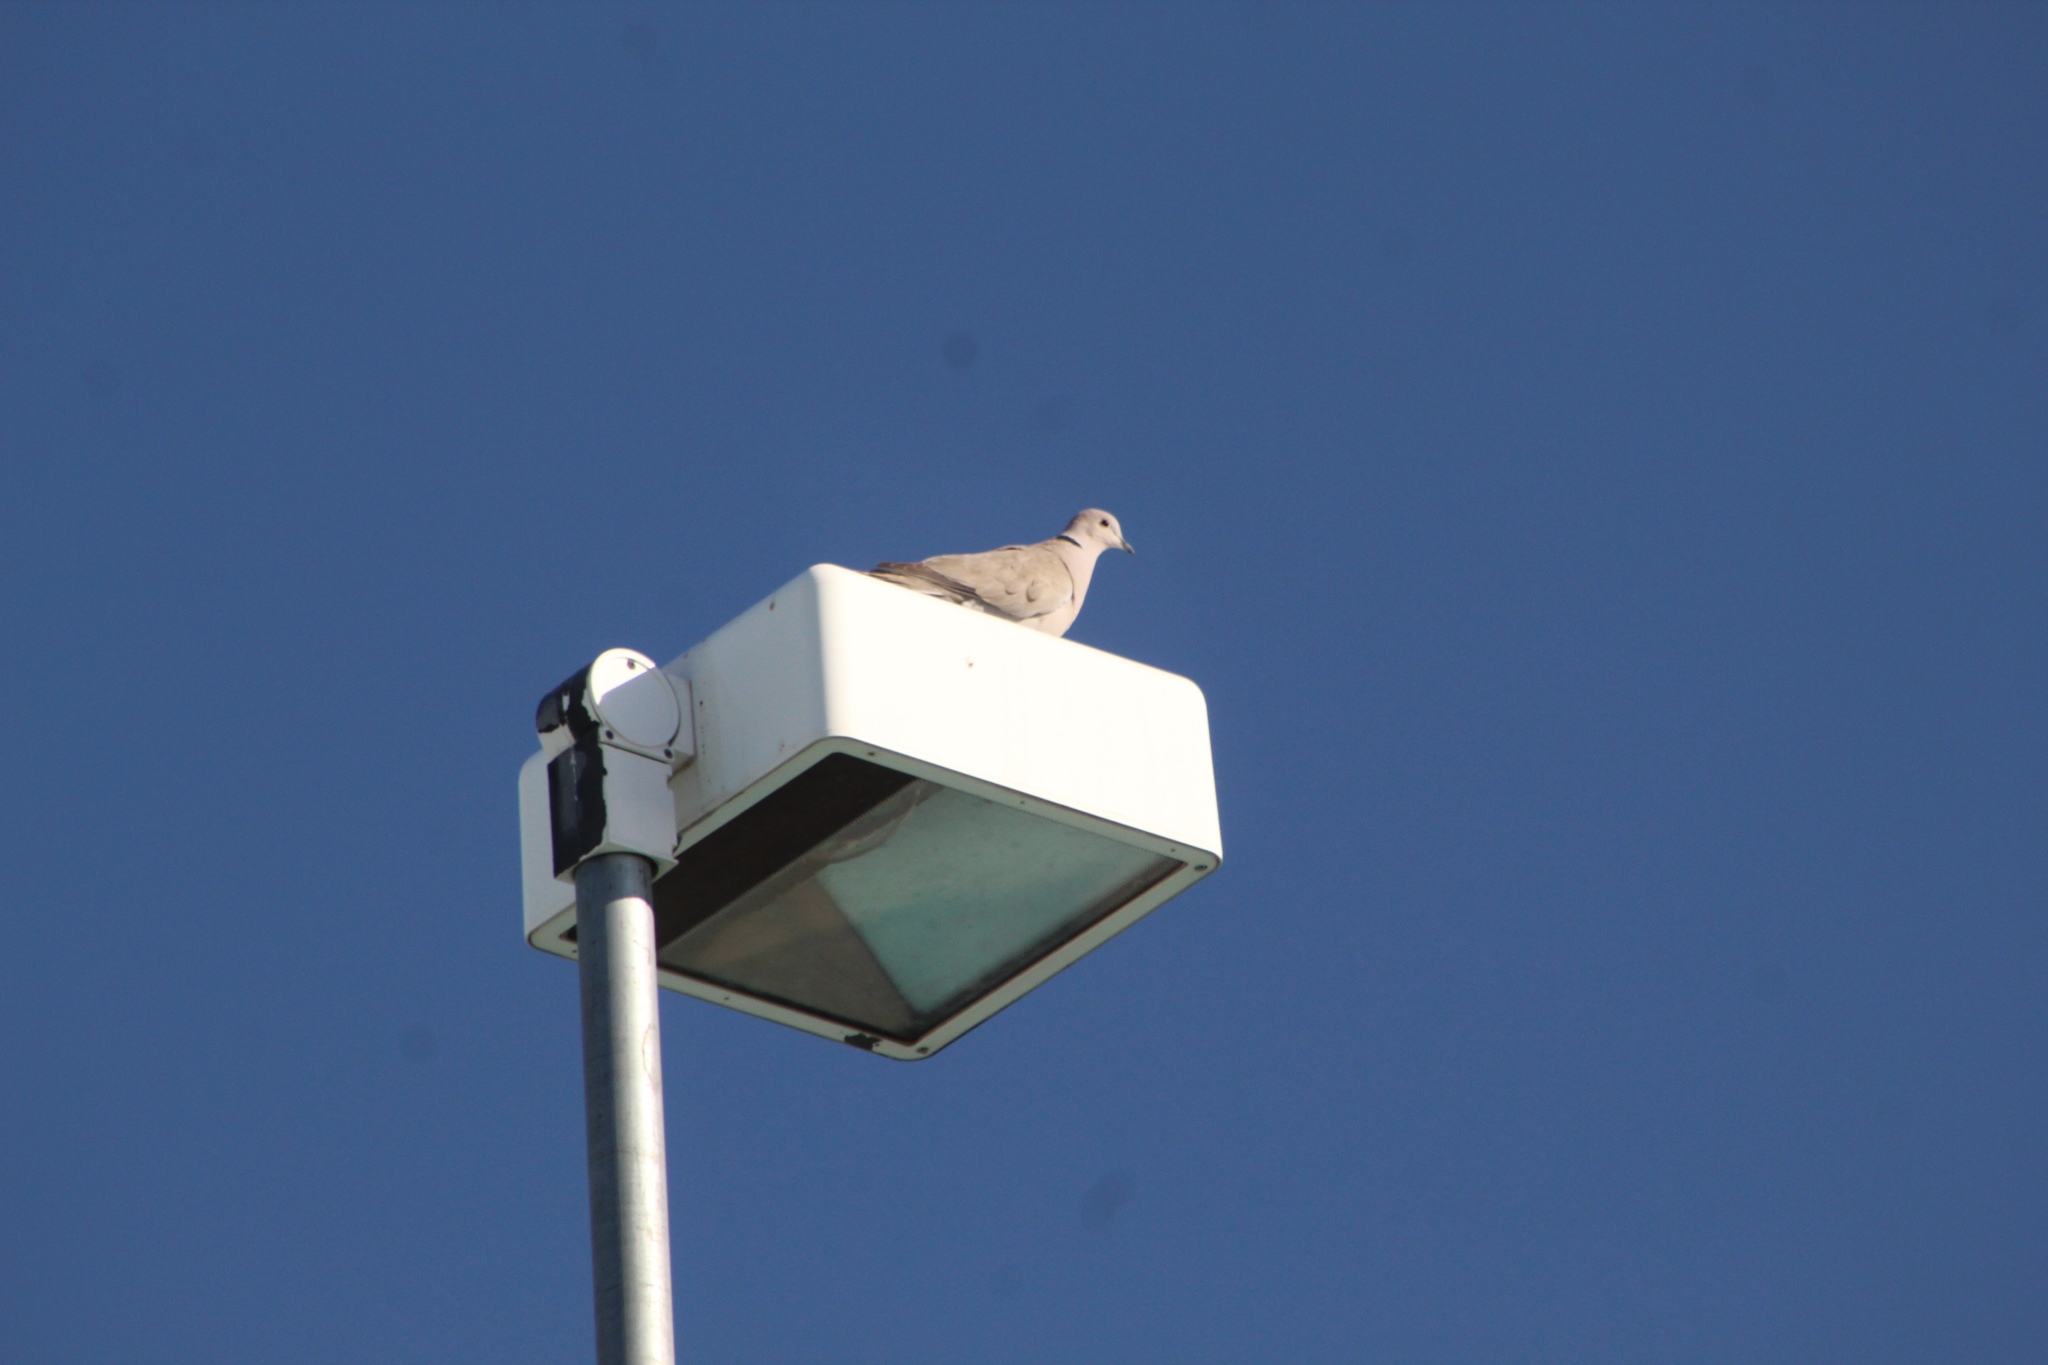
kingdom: Animalia
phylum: Chordata
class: Aves
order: Columbiformes
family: Columbidae
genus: Streptopelia
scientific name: Streptopelia decaocto
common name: Eurasian collared dove
